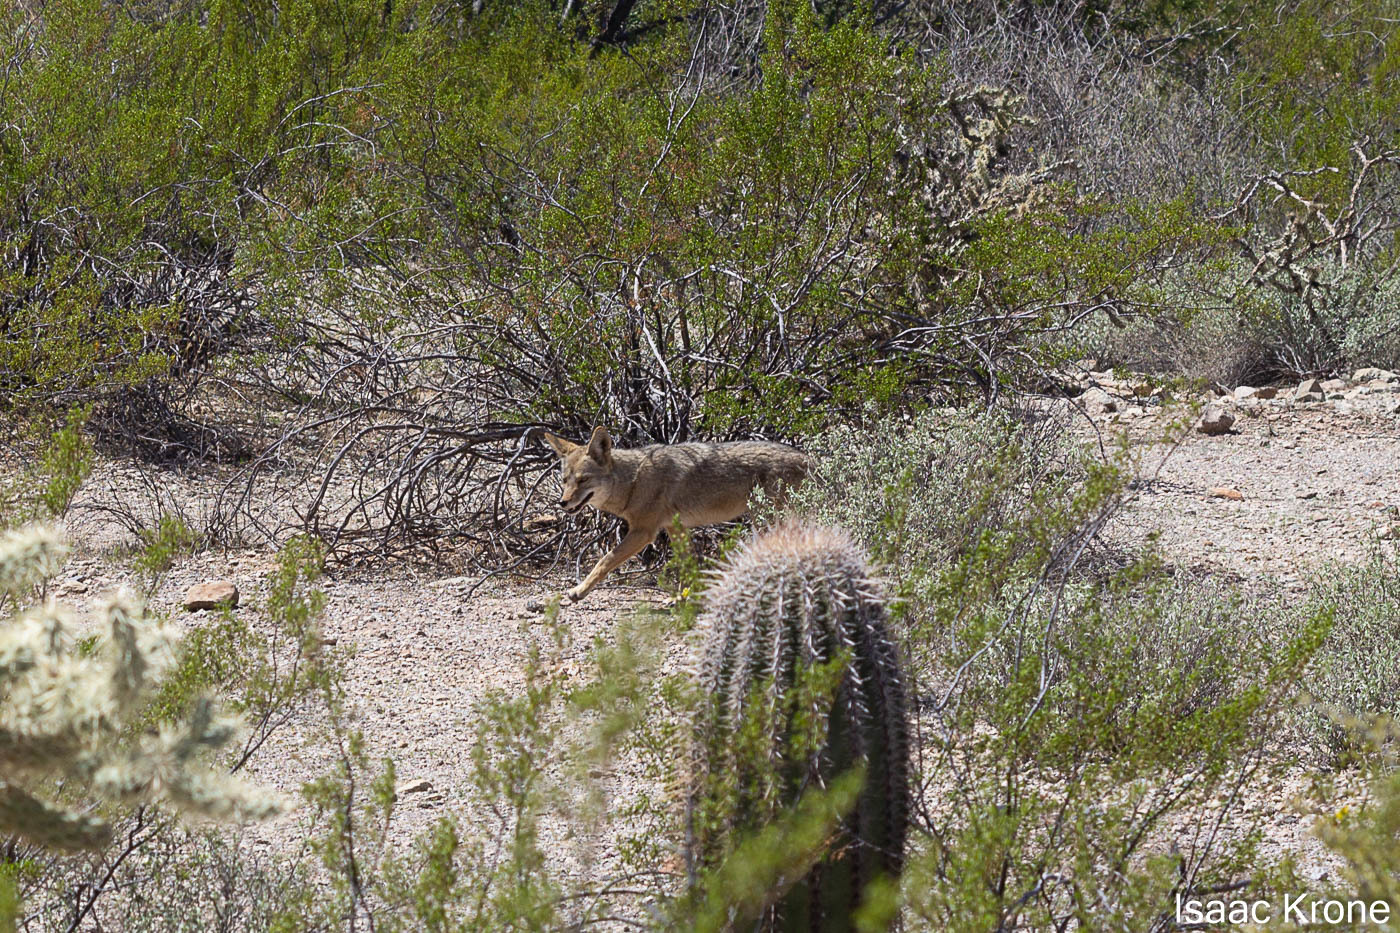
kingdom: Animalia
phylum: Chordata
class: Mammalia
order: Carnivora
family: Canidae
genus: Canis
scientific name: Canis latrans
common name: Coyote
